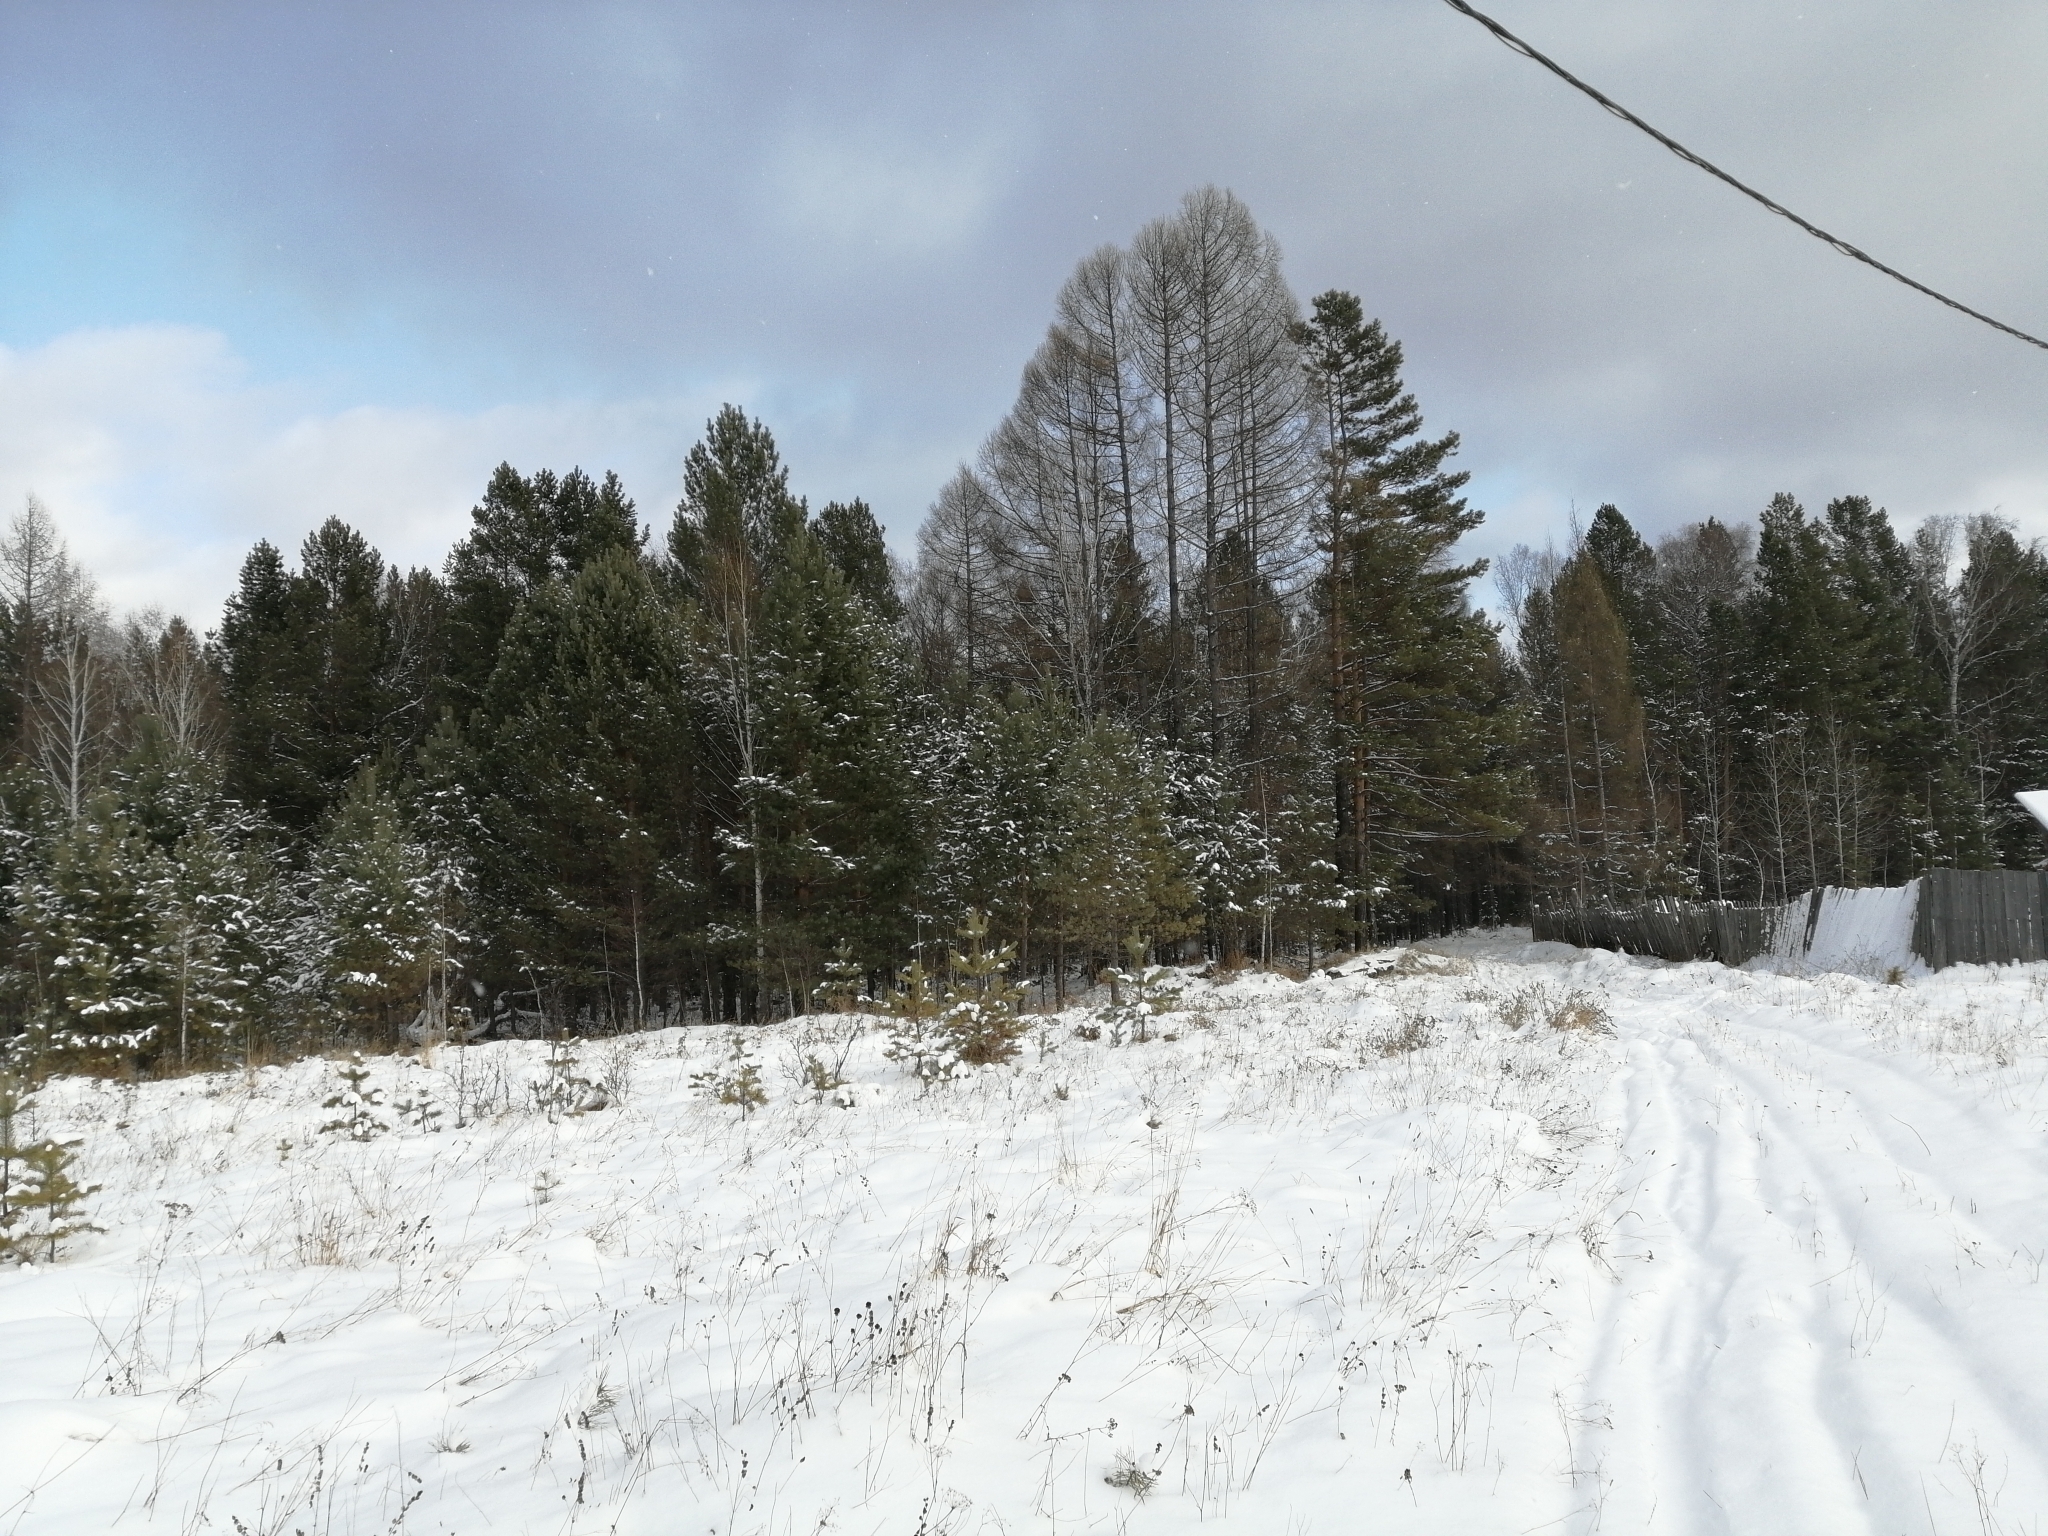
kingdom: Plantae
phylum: Tracheophyta
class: Pinopsida
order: Pinales
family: Pinaceae
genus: Larix
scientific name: Larix sibirica
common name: Siberian larch
